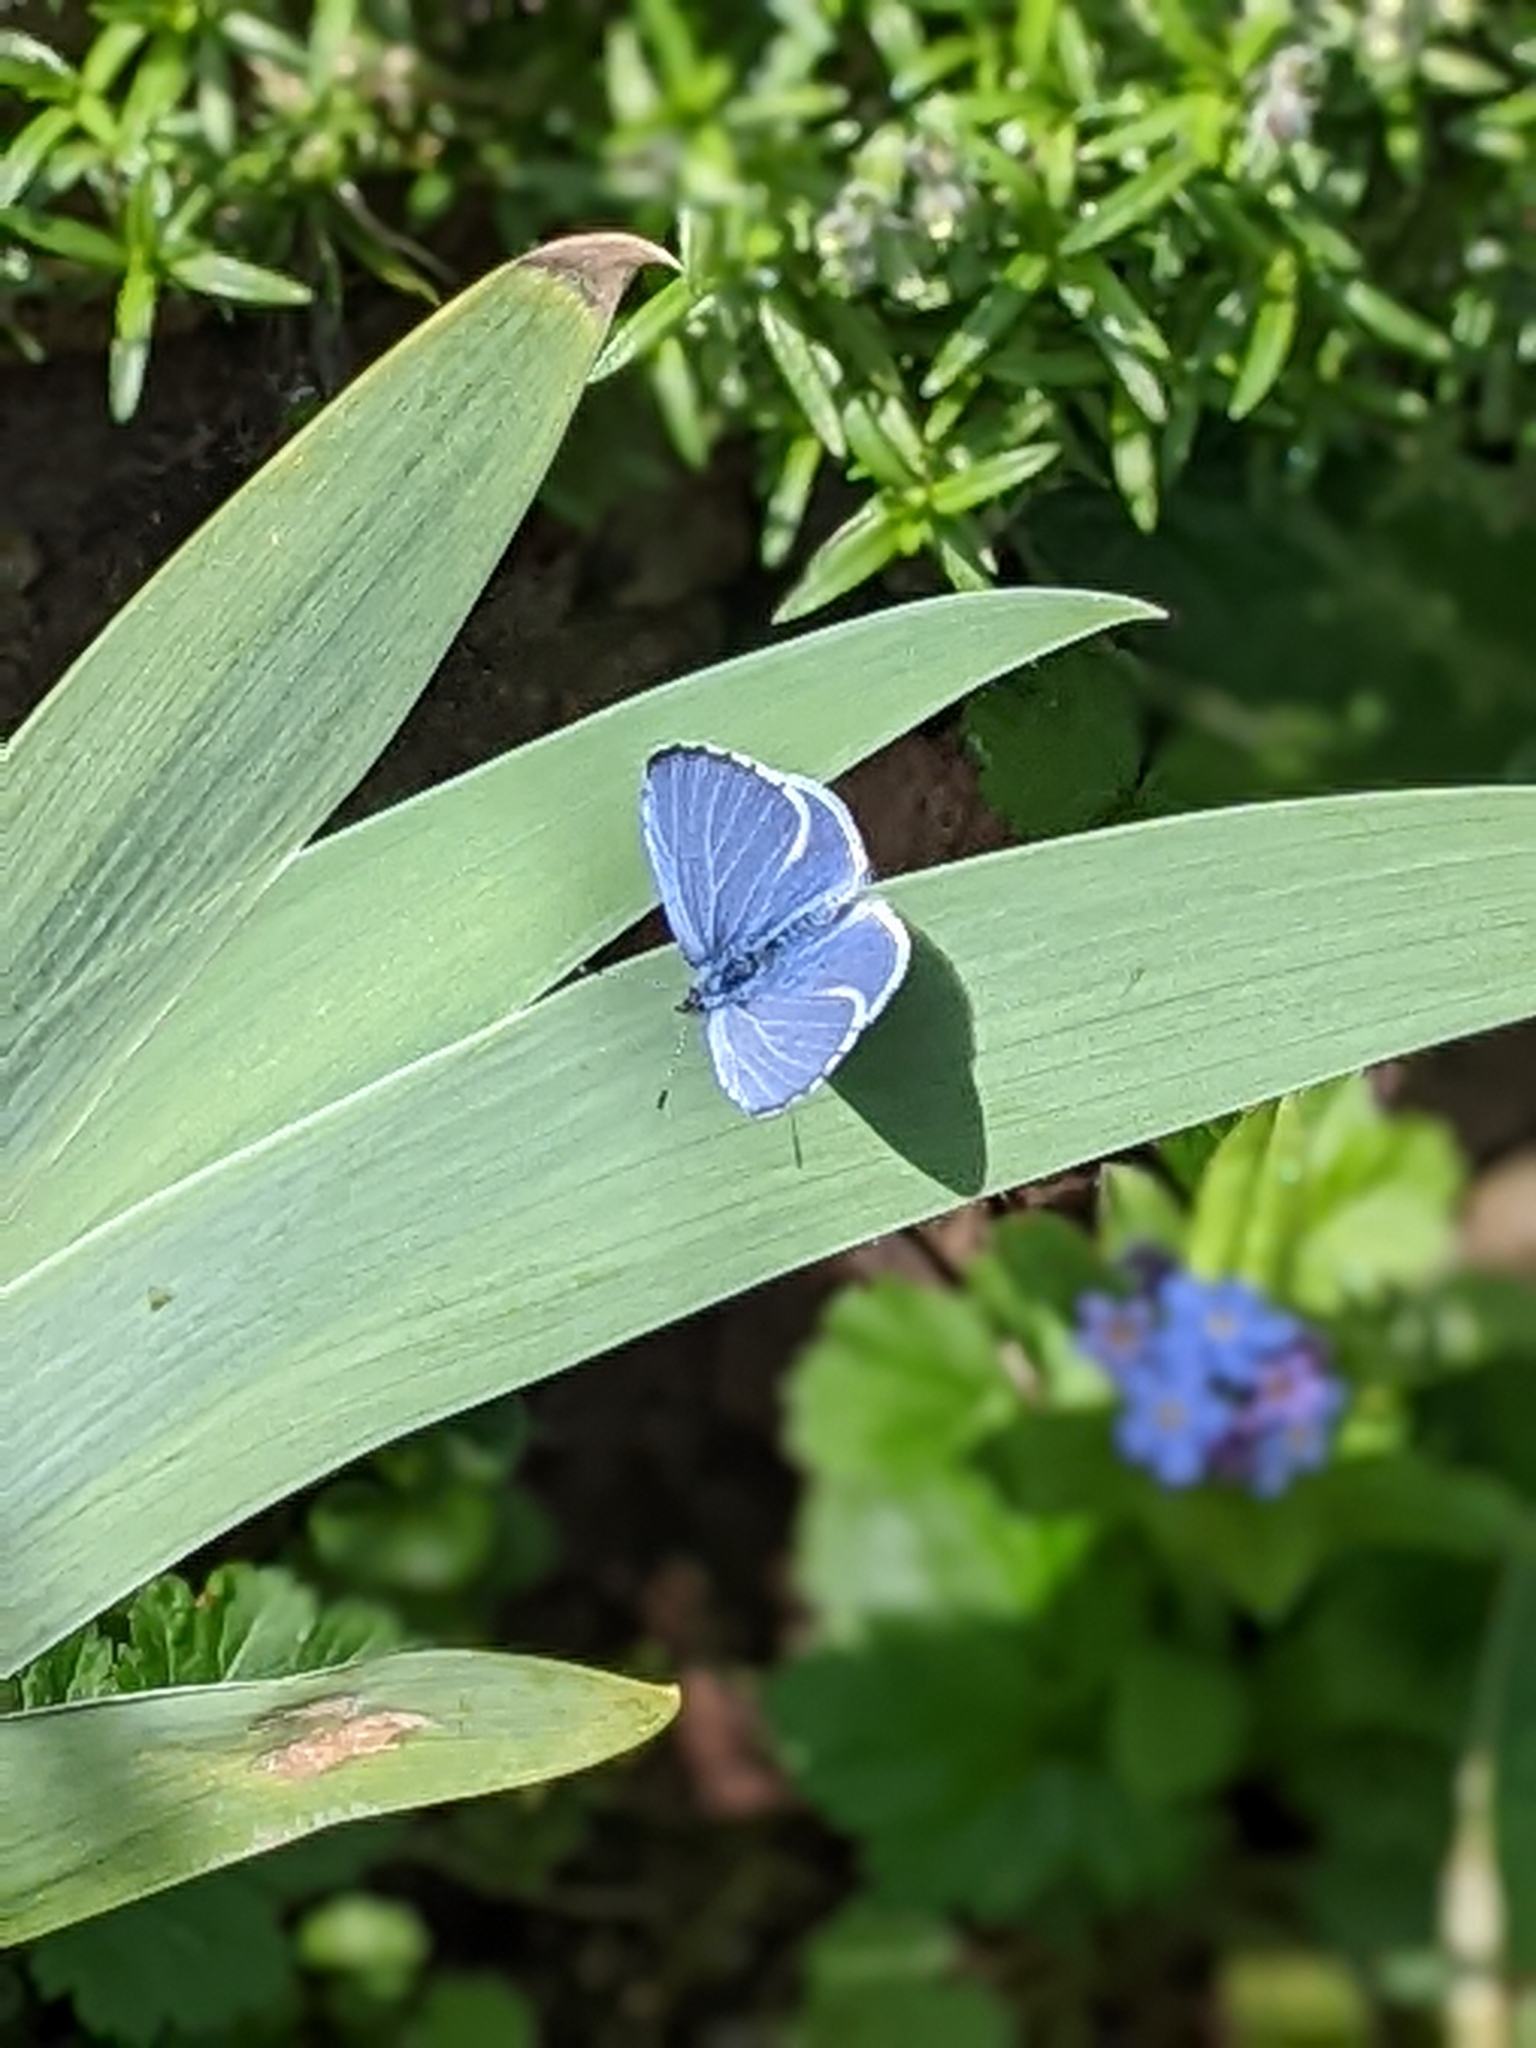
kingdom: Animalia
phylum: Arthropoda
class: Insecta
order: Lepidoptera
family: Lycaenidae
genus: Celastrina
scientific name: Celastrina argiolus
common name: Holly blue
